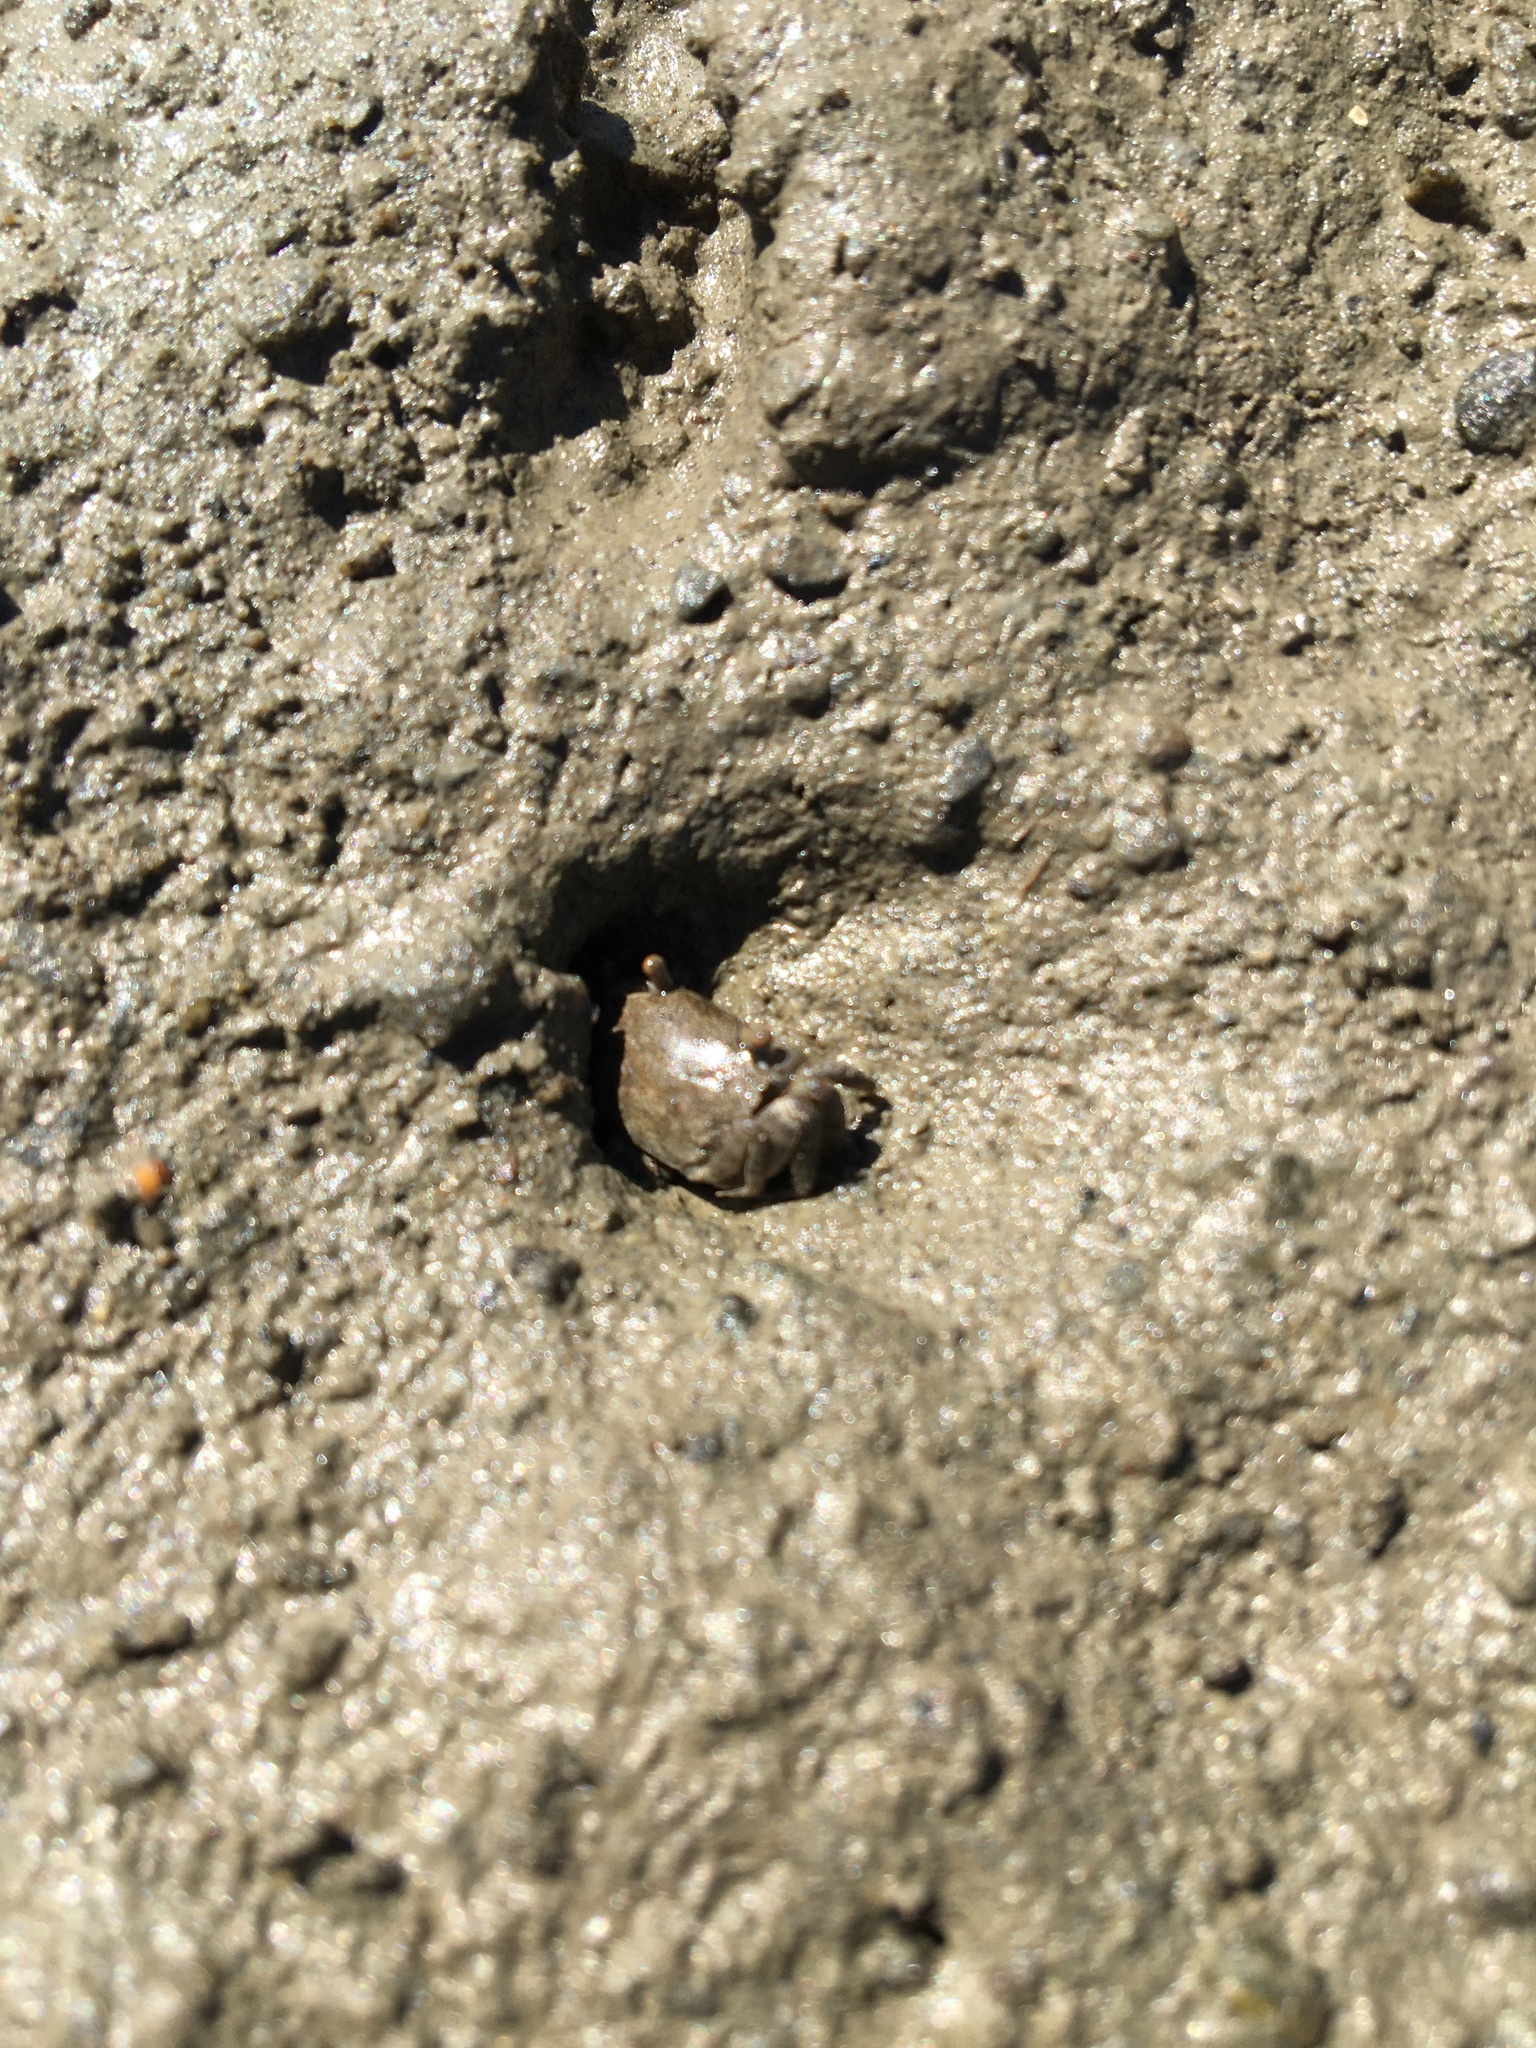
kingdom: Animalia
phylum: Arthropoda
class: Malacostraca
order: Decapoda
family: Varunidae
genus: Austrohelice
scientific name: Austrohelice crassa
